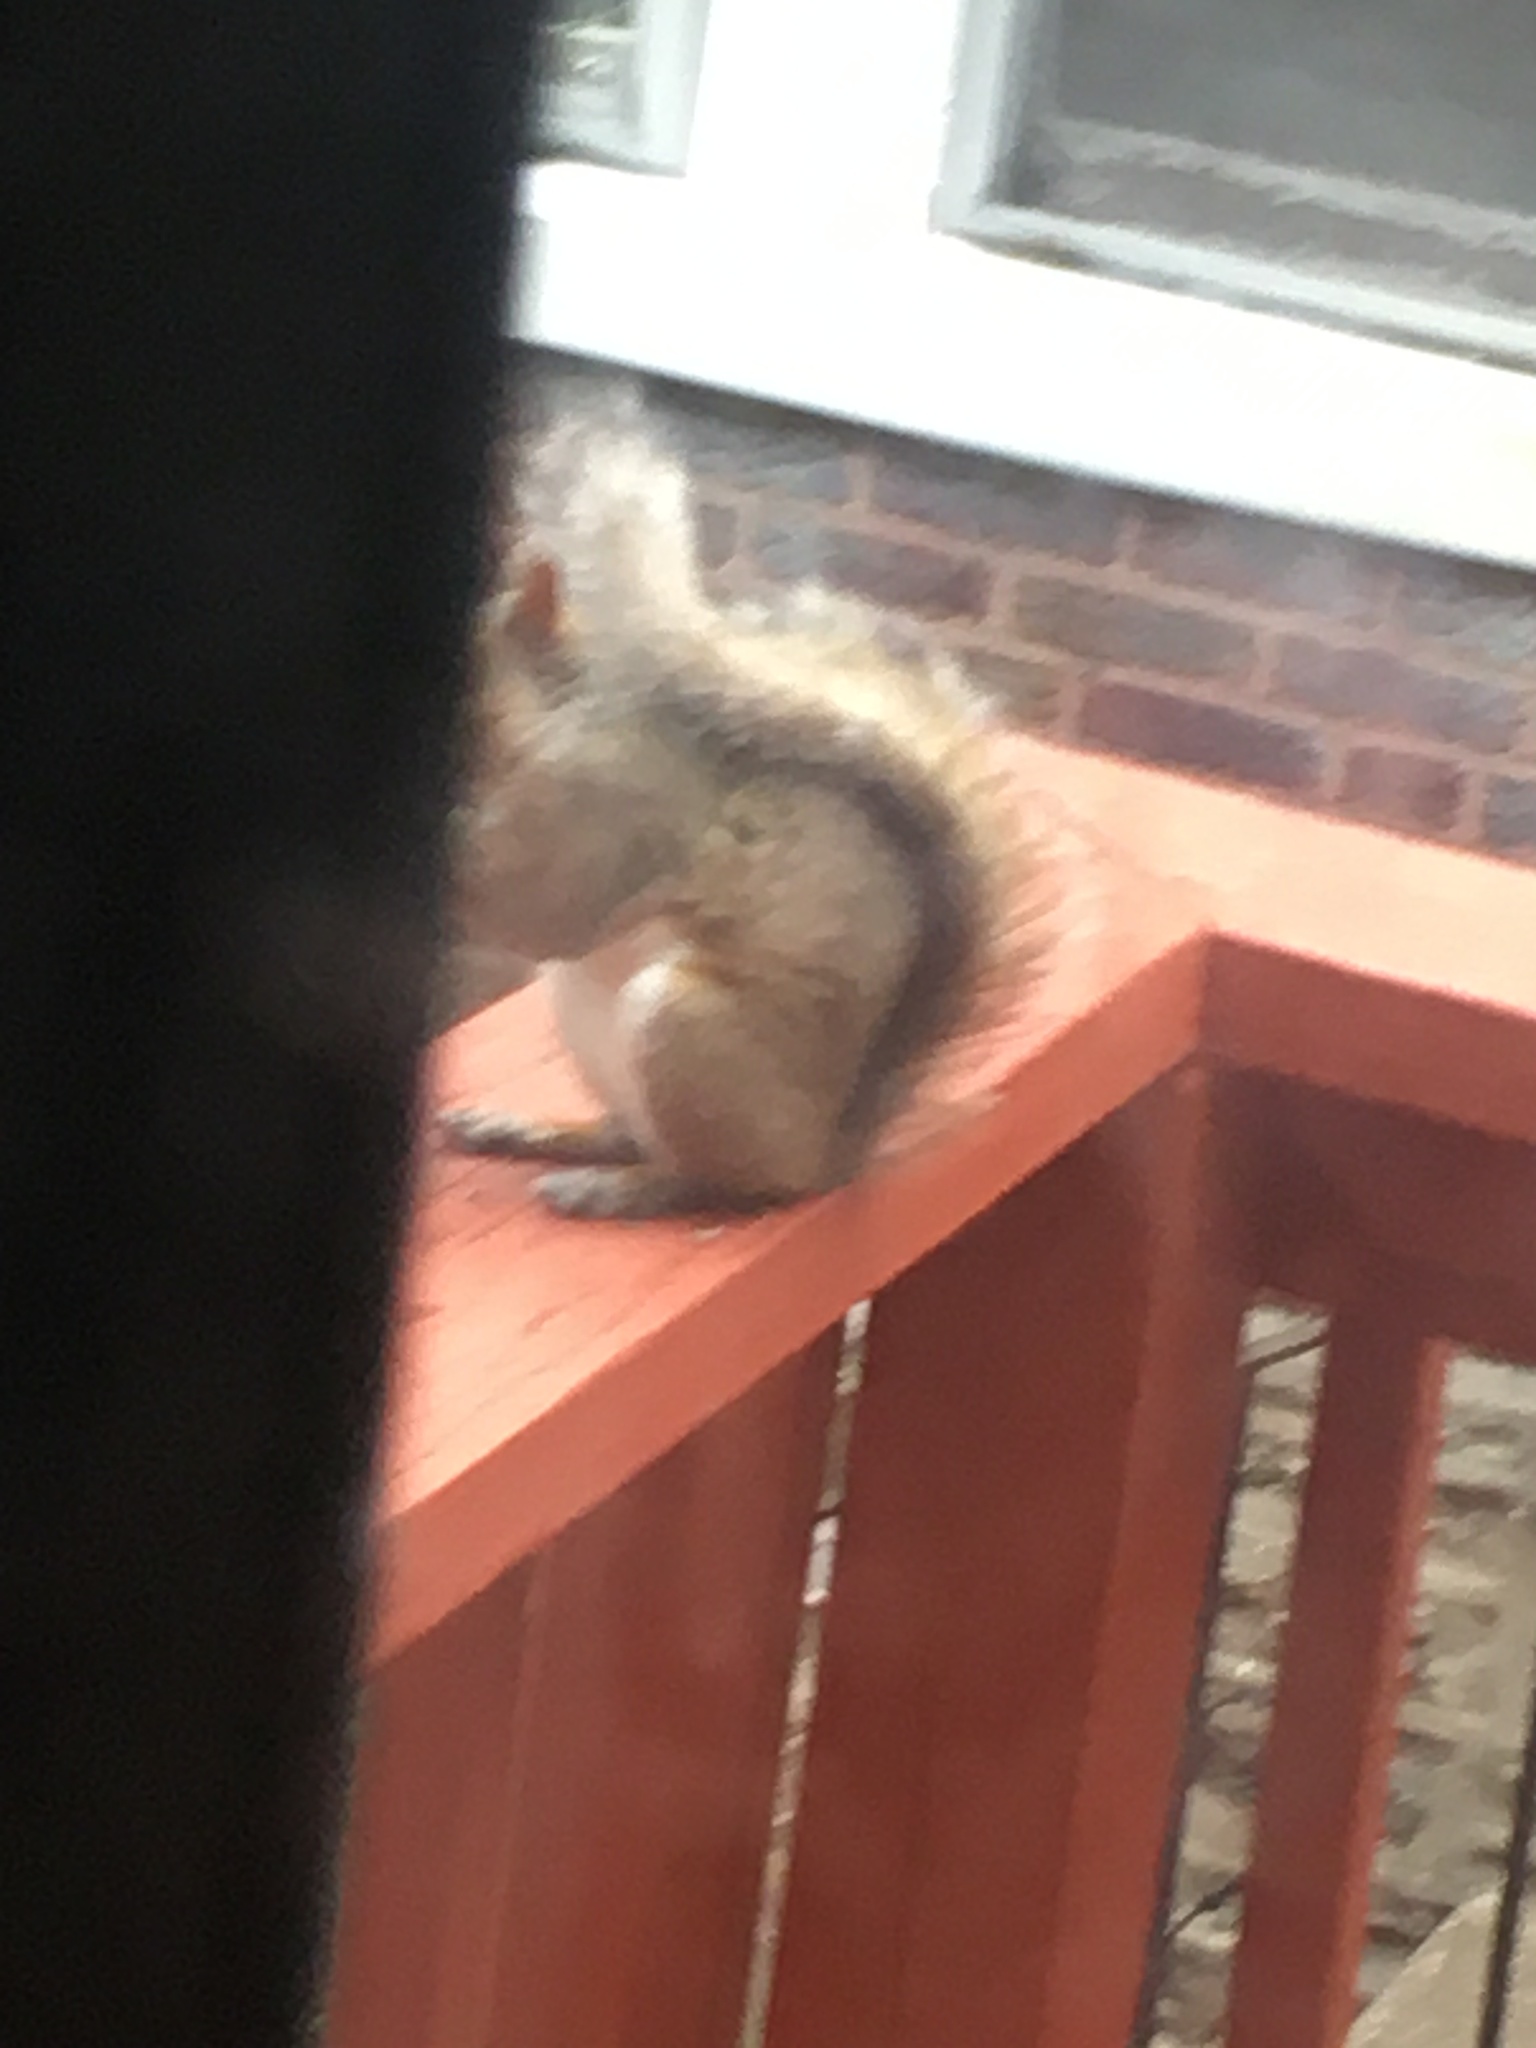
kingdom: Animalia
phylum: Chordata
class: Mammalia
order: Rodentia
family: Sciuridae
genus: Sciurus
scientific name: Sciurus carolinensis
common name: Eastern gray squirrel
